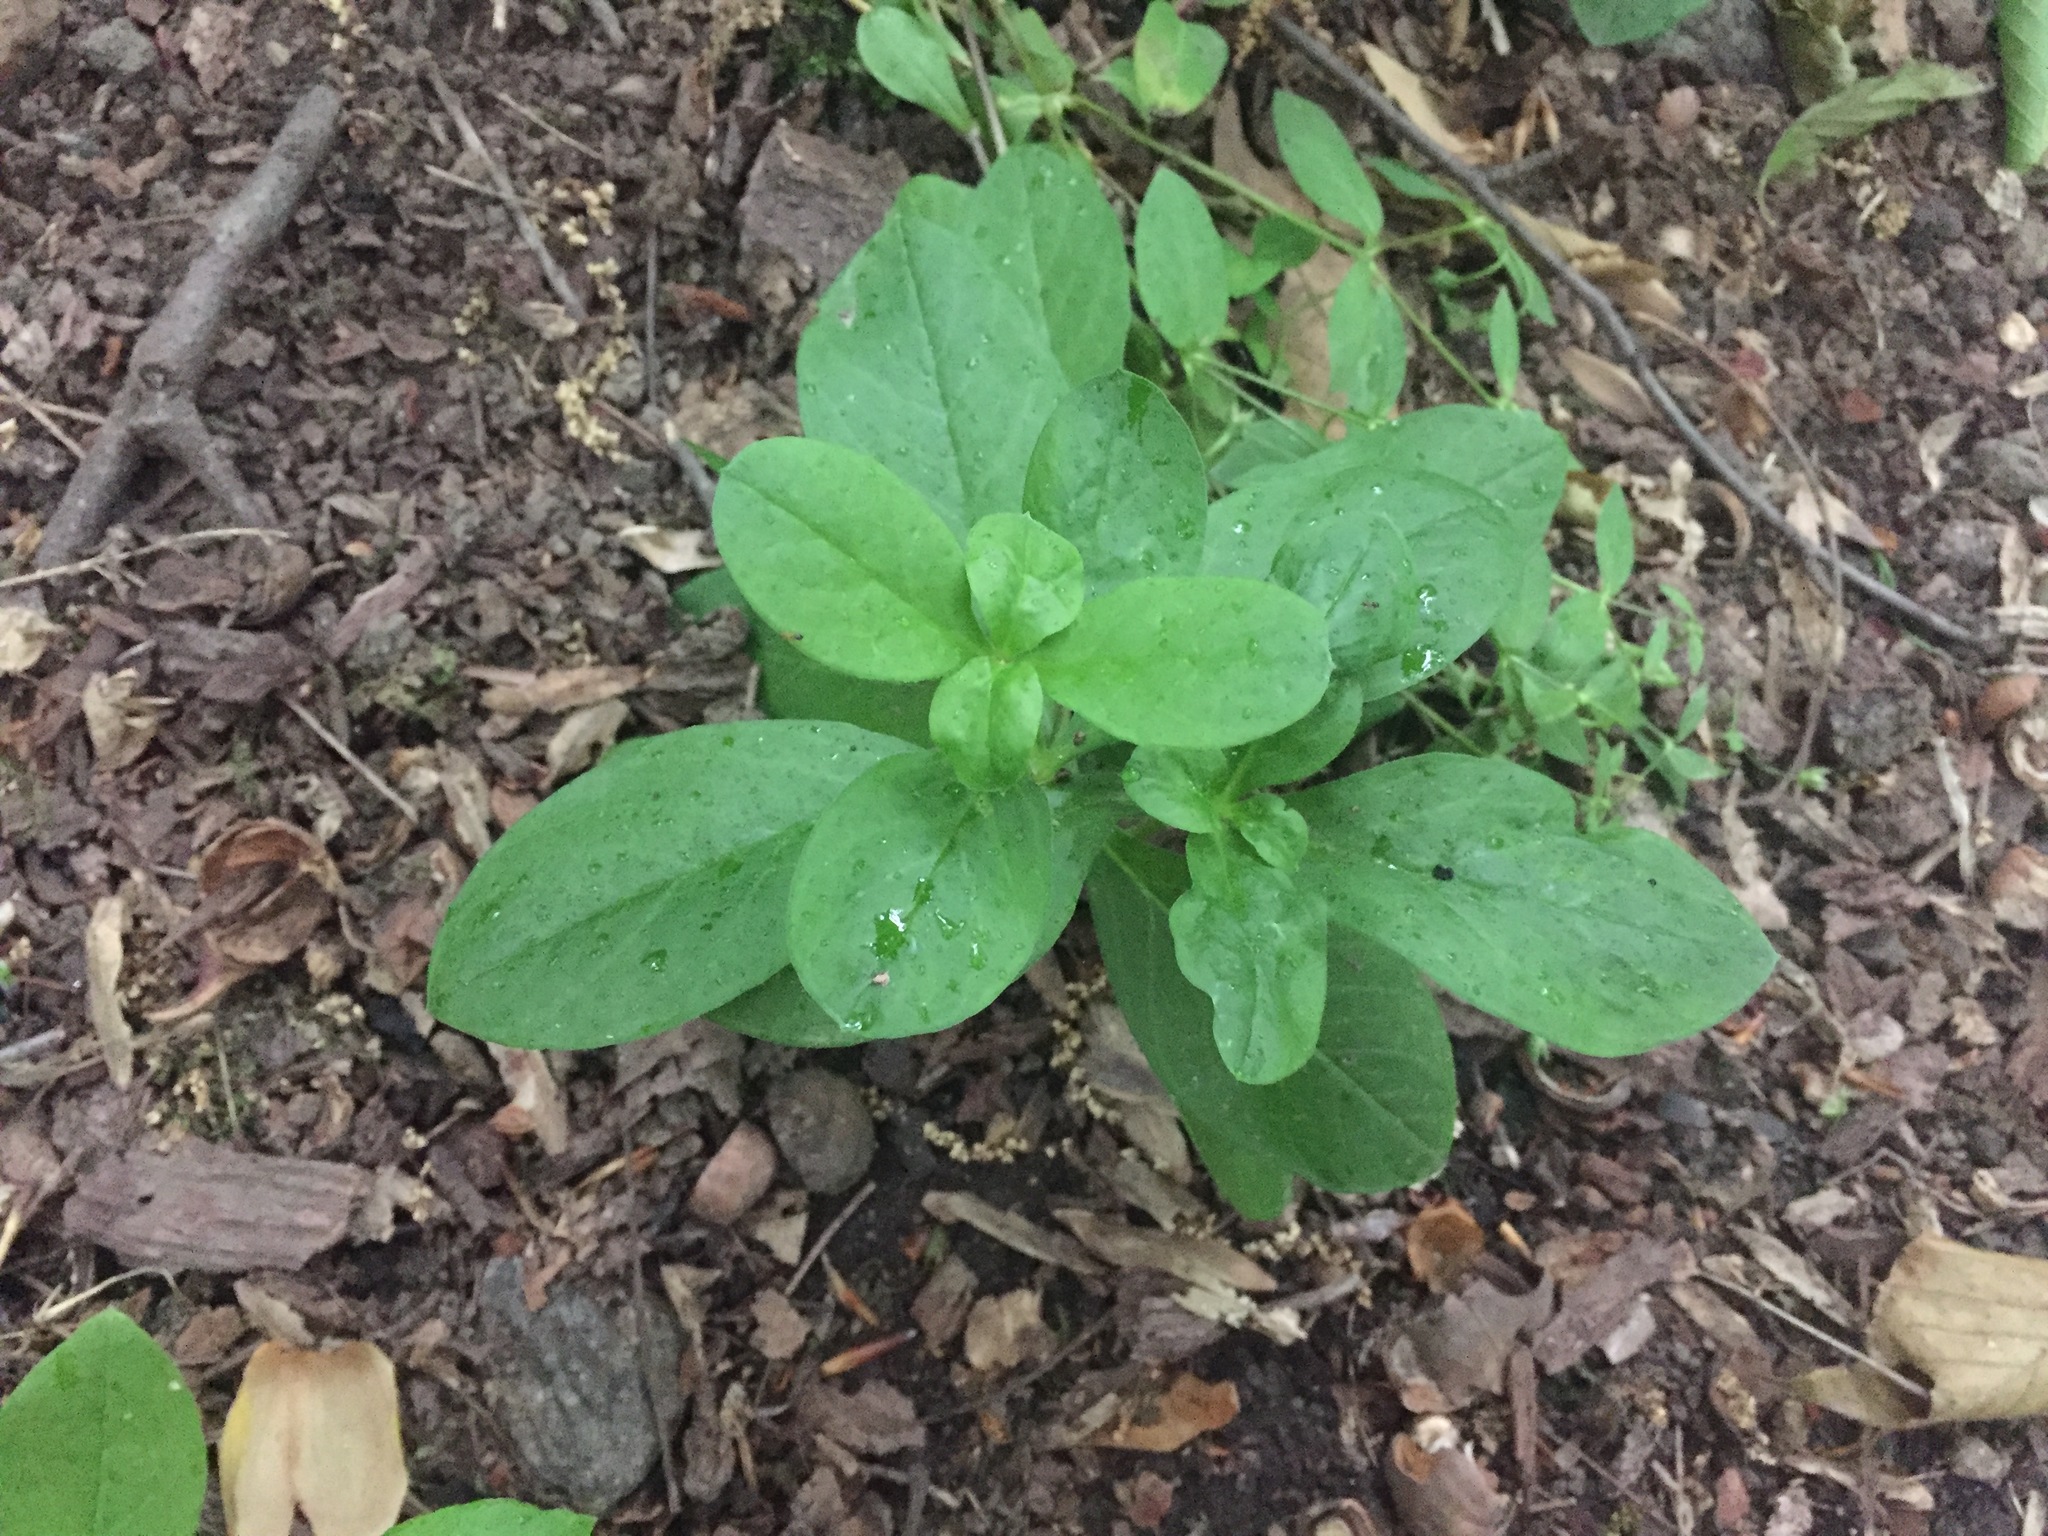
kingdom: Plantae
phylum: Tracheophyta
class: Magnoliopsida
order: Caryophyllales
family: Caryophyllaceae
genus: Stellaria
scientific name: Stellaria pubera
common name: Star chickweed
